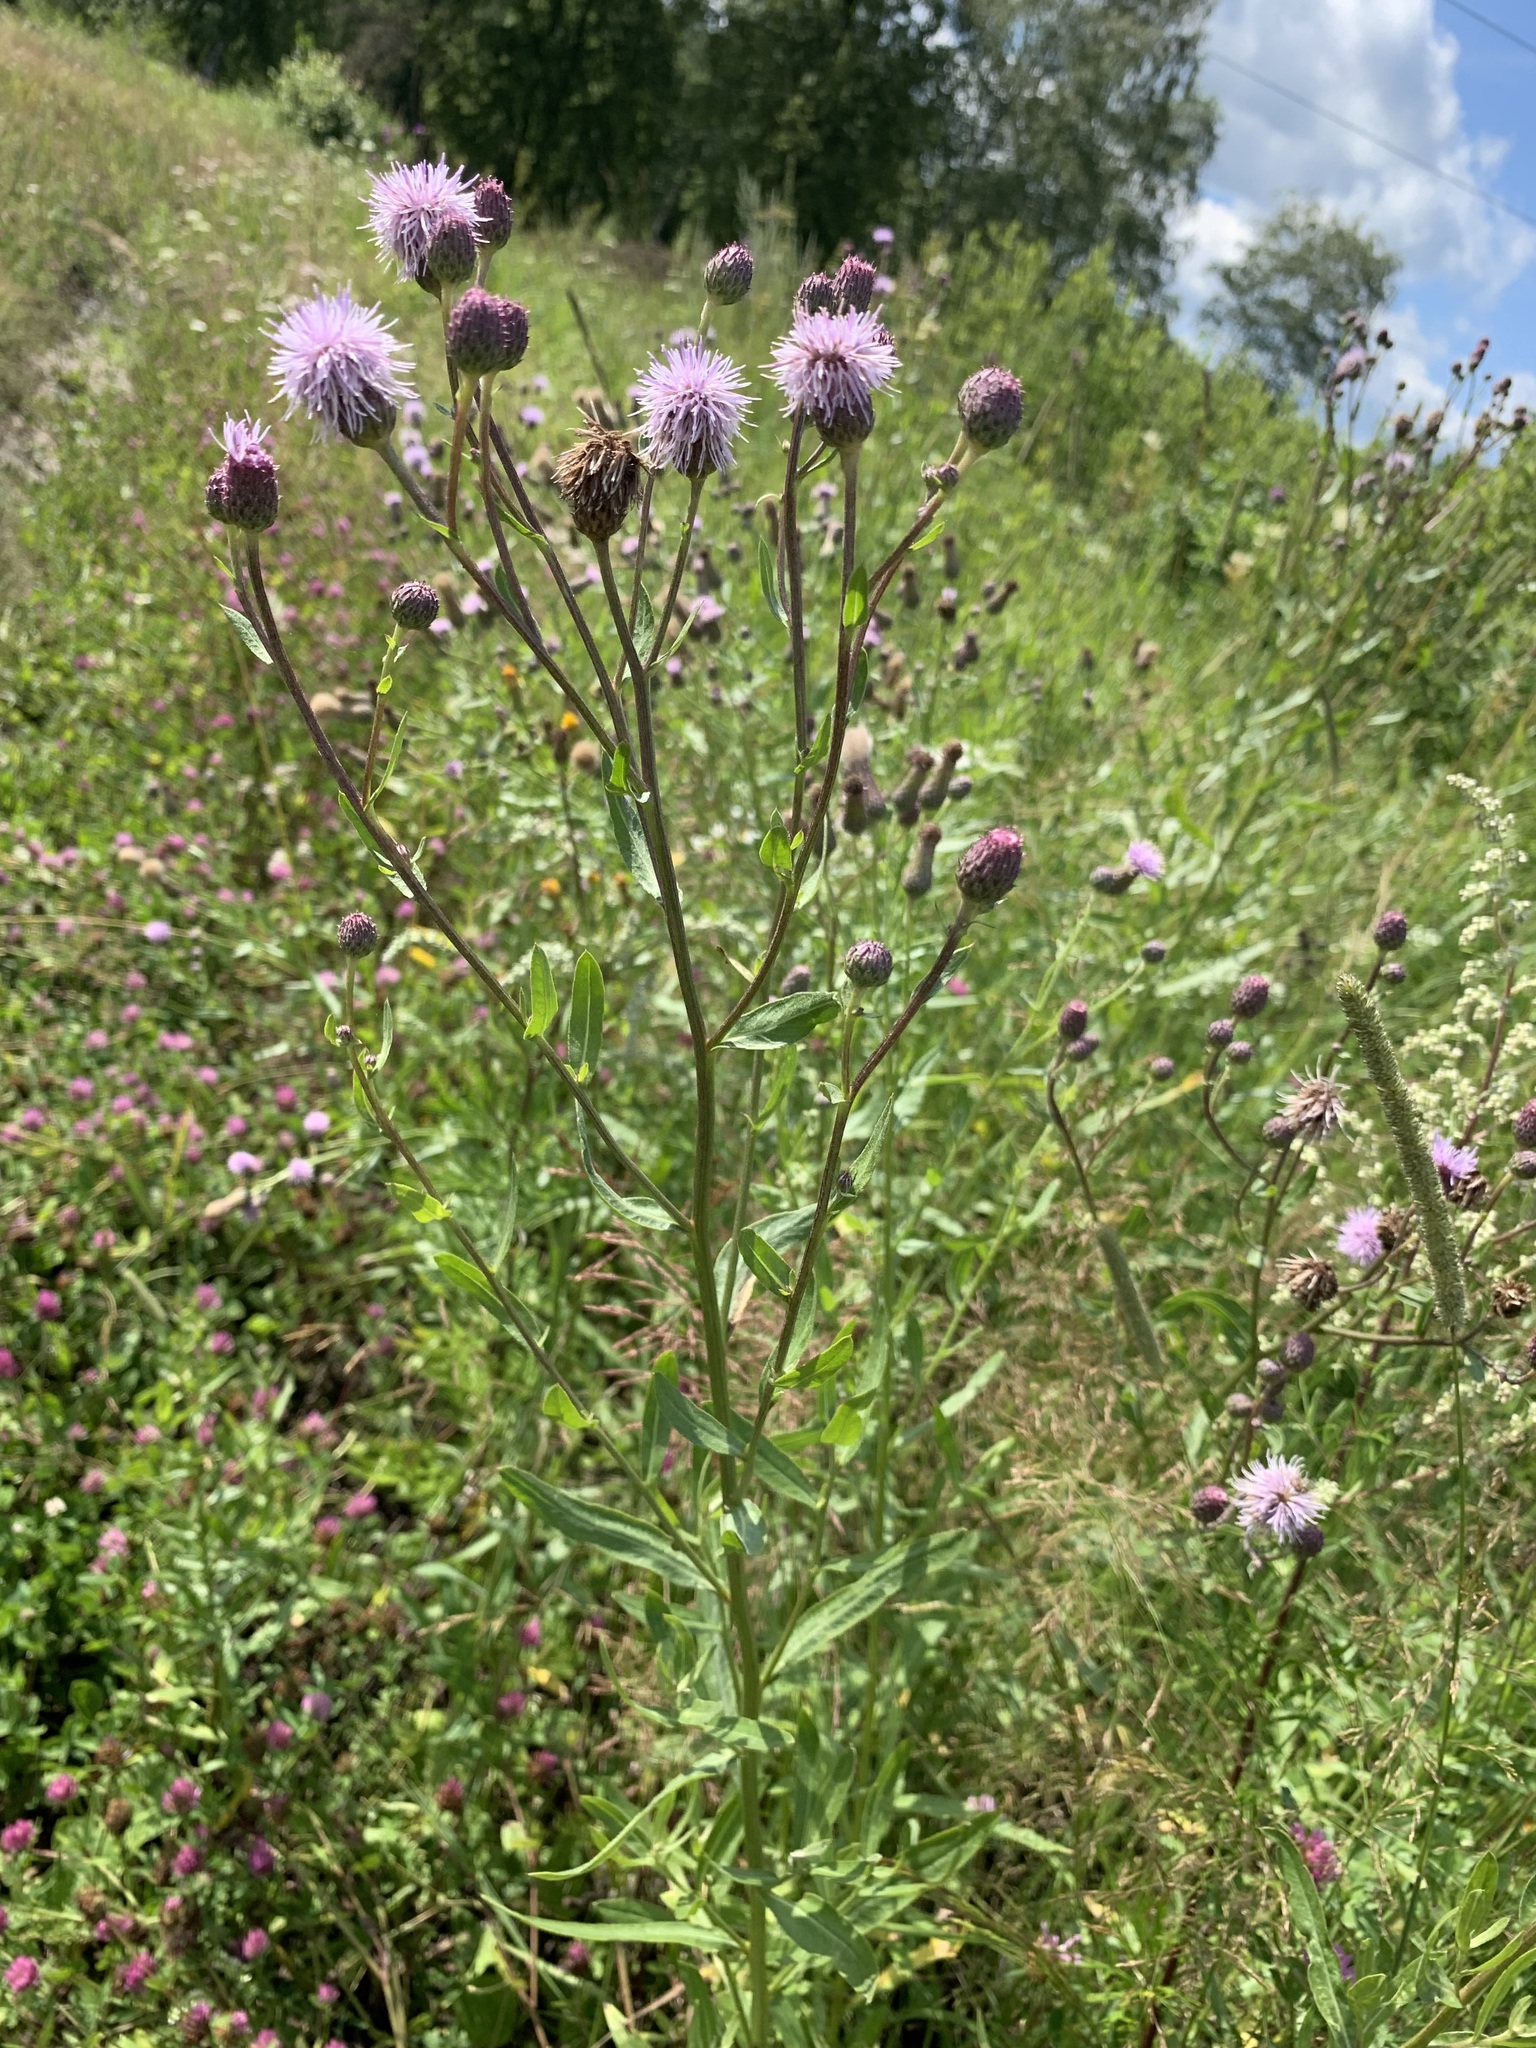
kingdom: Plantae
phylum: Tracheophyta
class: Magnoliopsida
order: Asterales
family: Asteraceae
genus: Cirsium
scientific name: Cirsium arvense
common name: Creeping thistle
